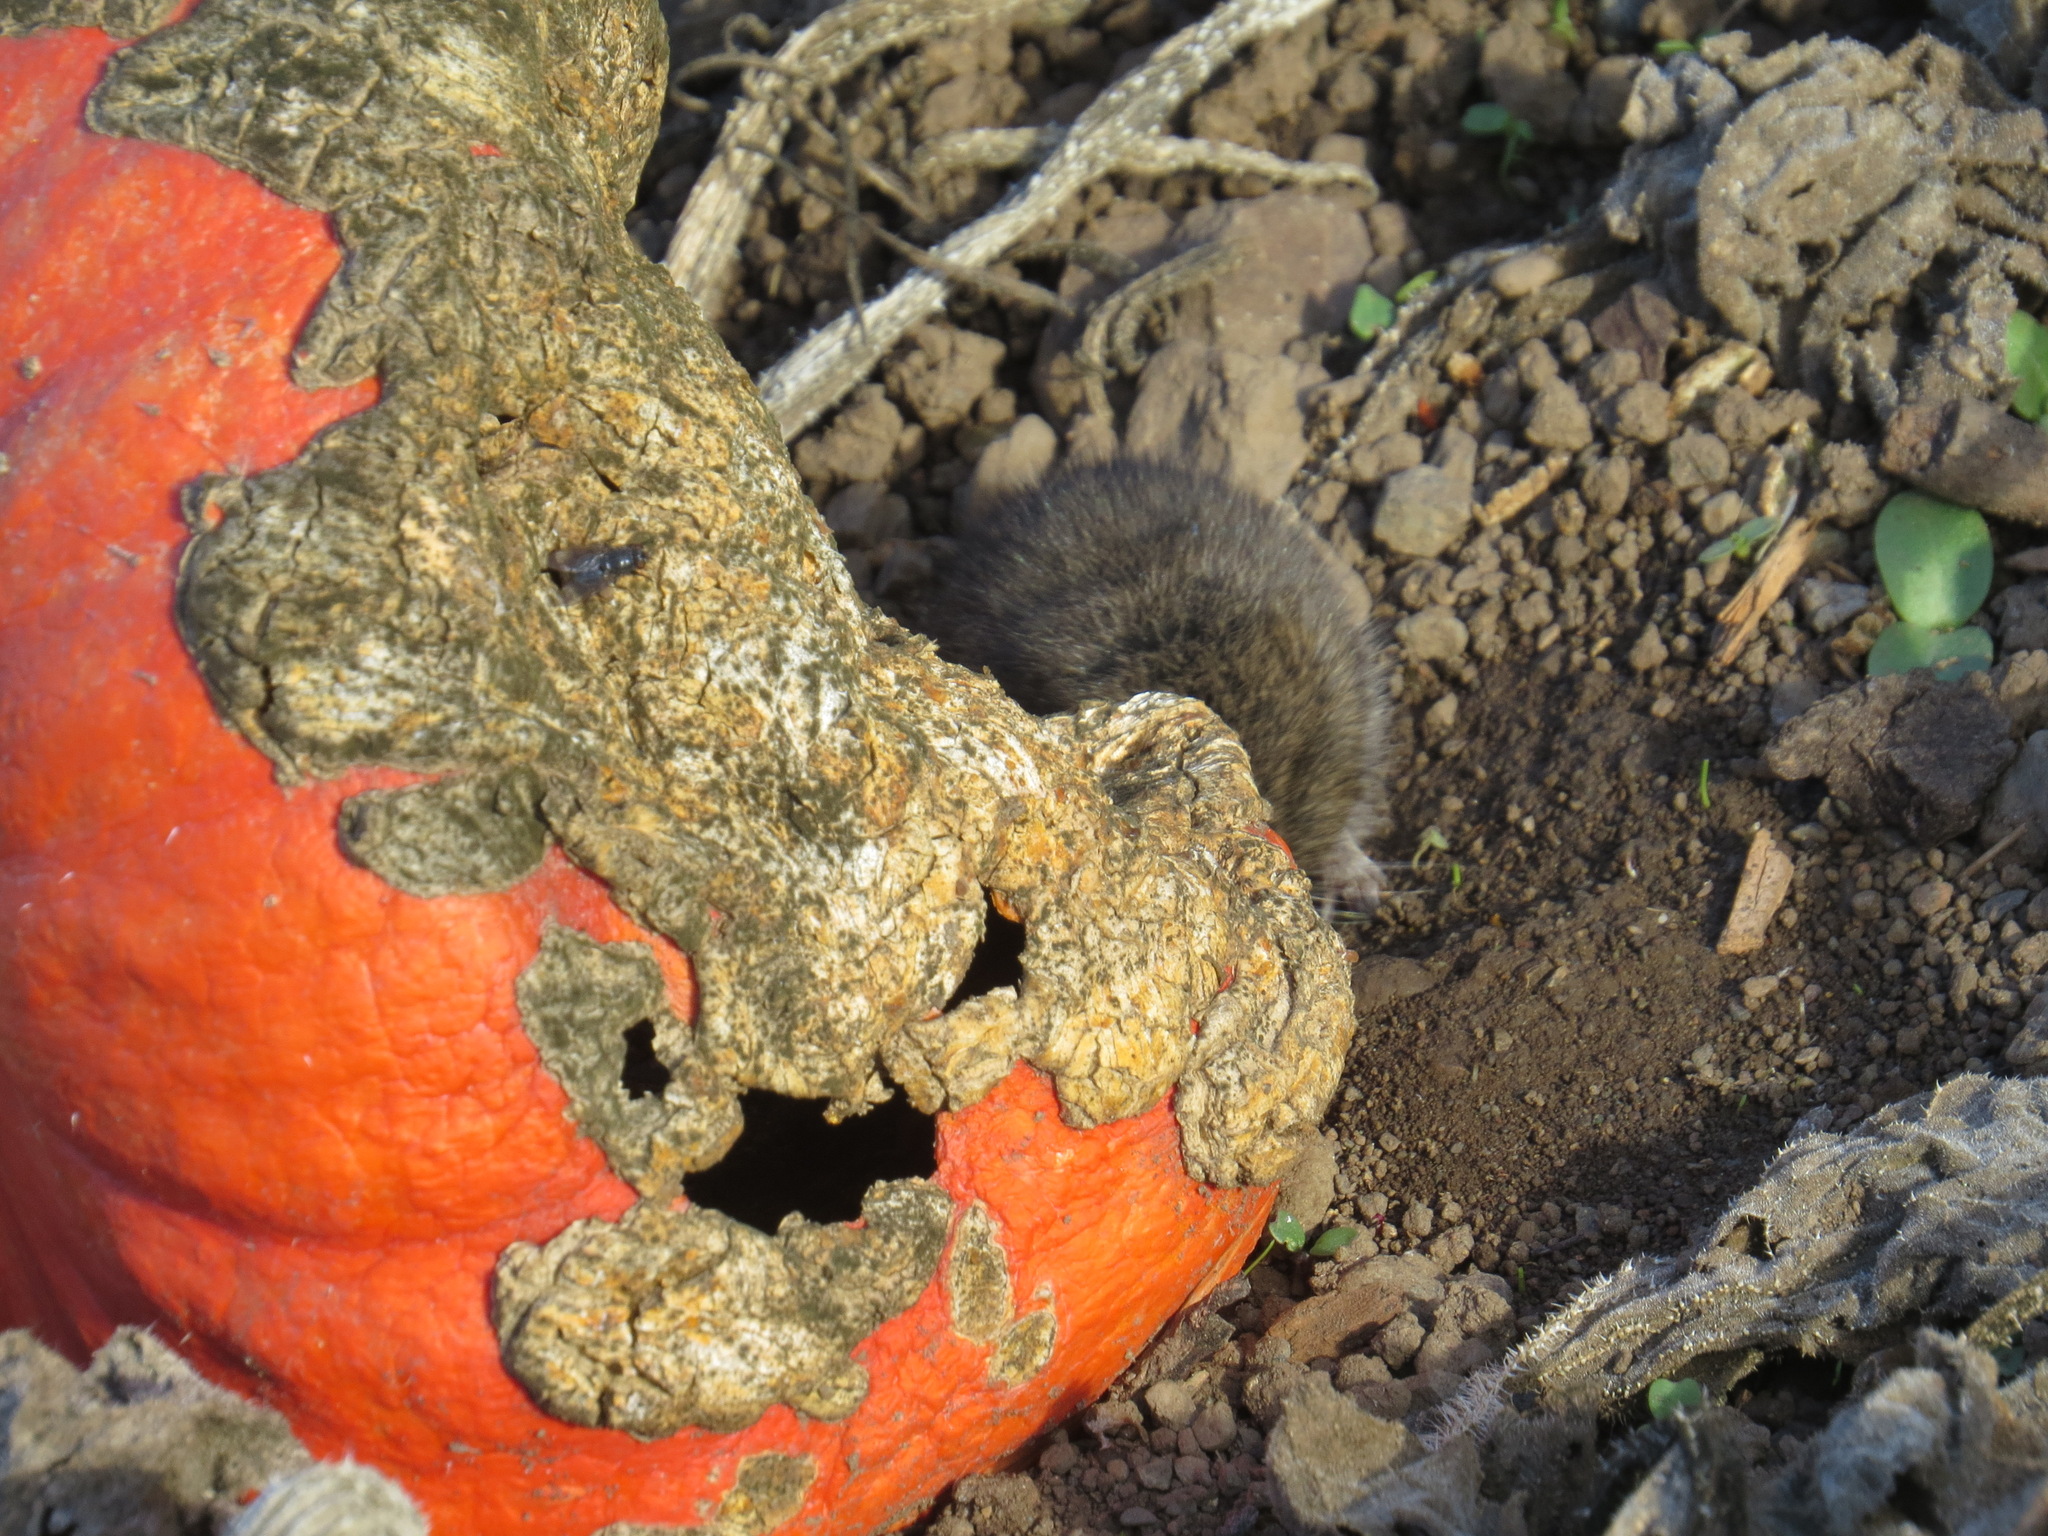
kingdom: Animalia
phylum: Chordata
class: Mammalia
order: Rodentia
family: Cricetidae
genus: Microtus
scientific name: Microtus californicus
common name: California vole
